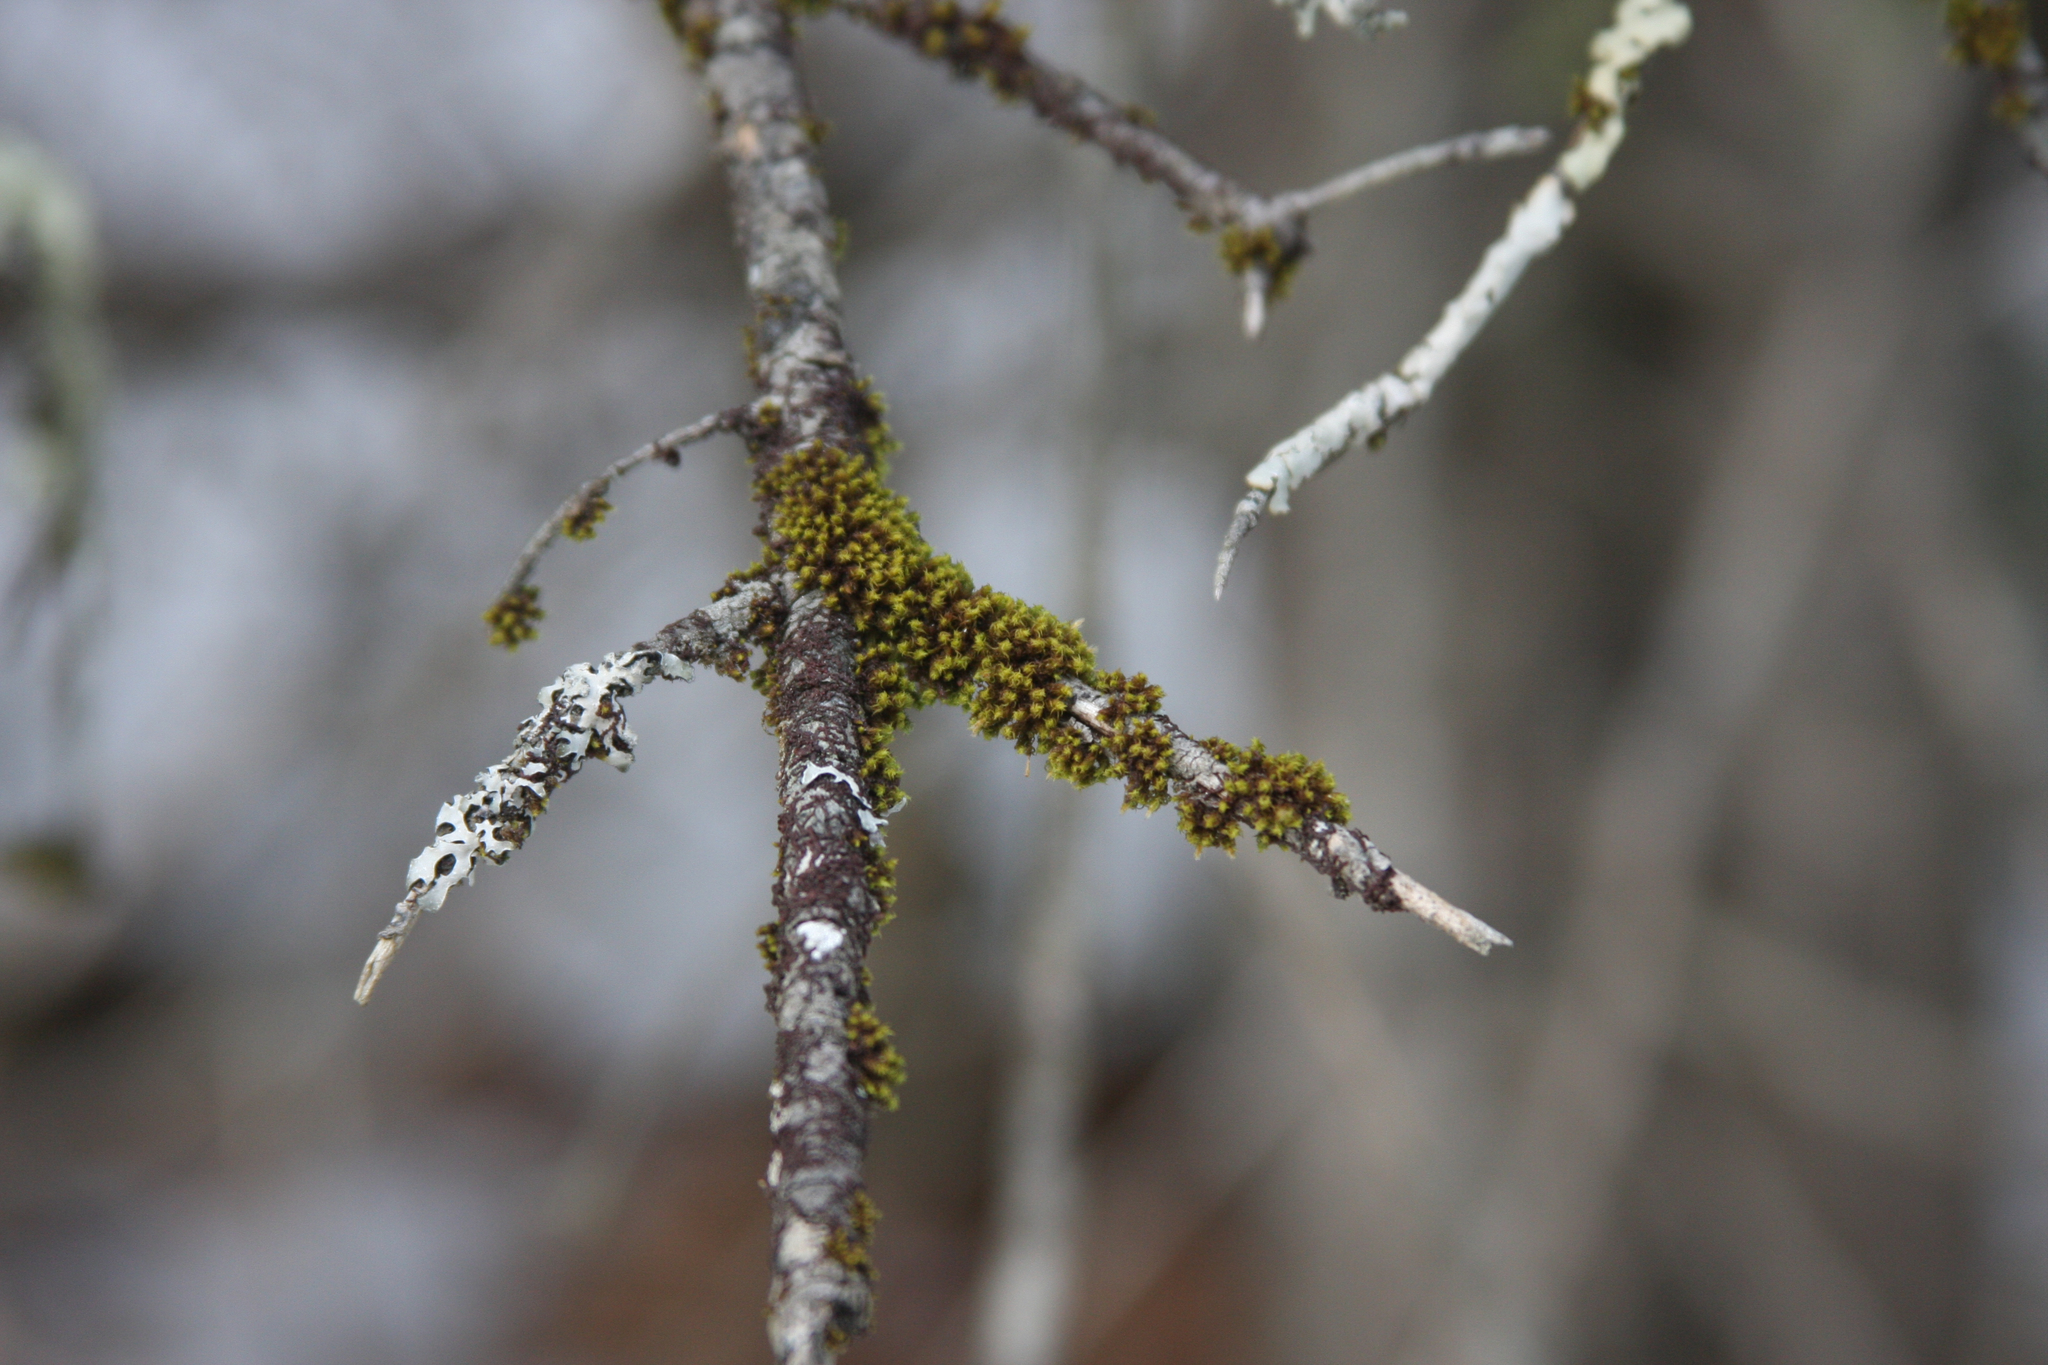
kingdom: Plantae
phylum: Bryophyta
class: Bryopsida
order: Orthotrichales
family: Orthotrichaceae
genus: Ulota
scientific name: Ulota crispa
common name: Crisped pincushion moss
